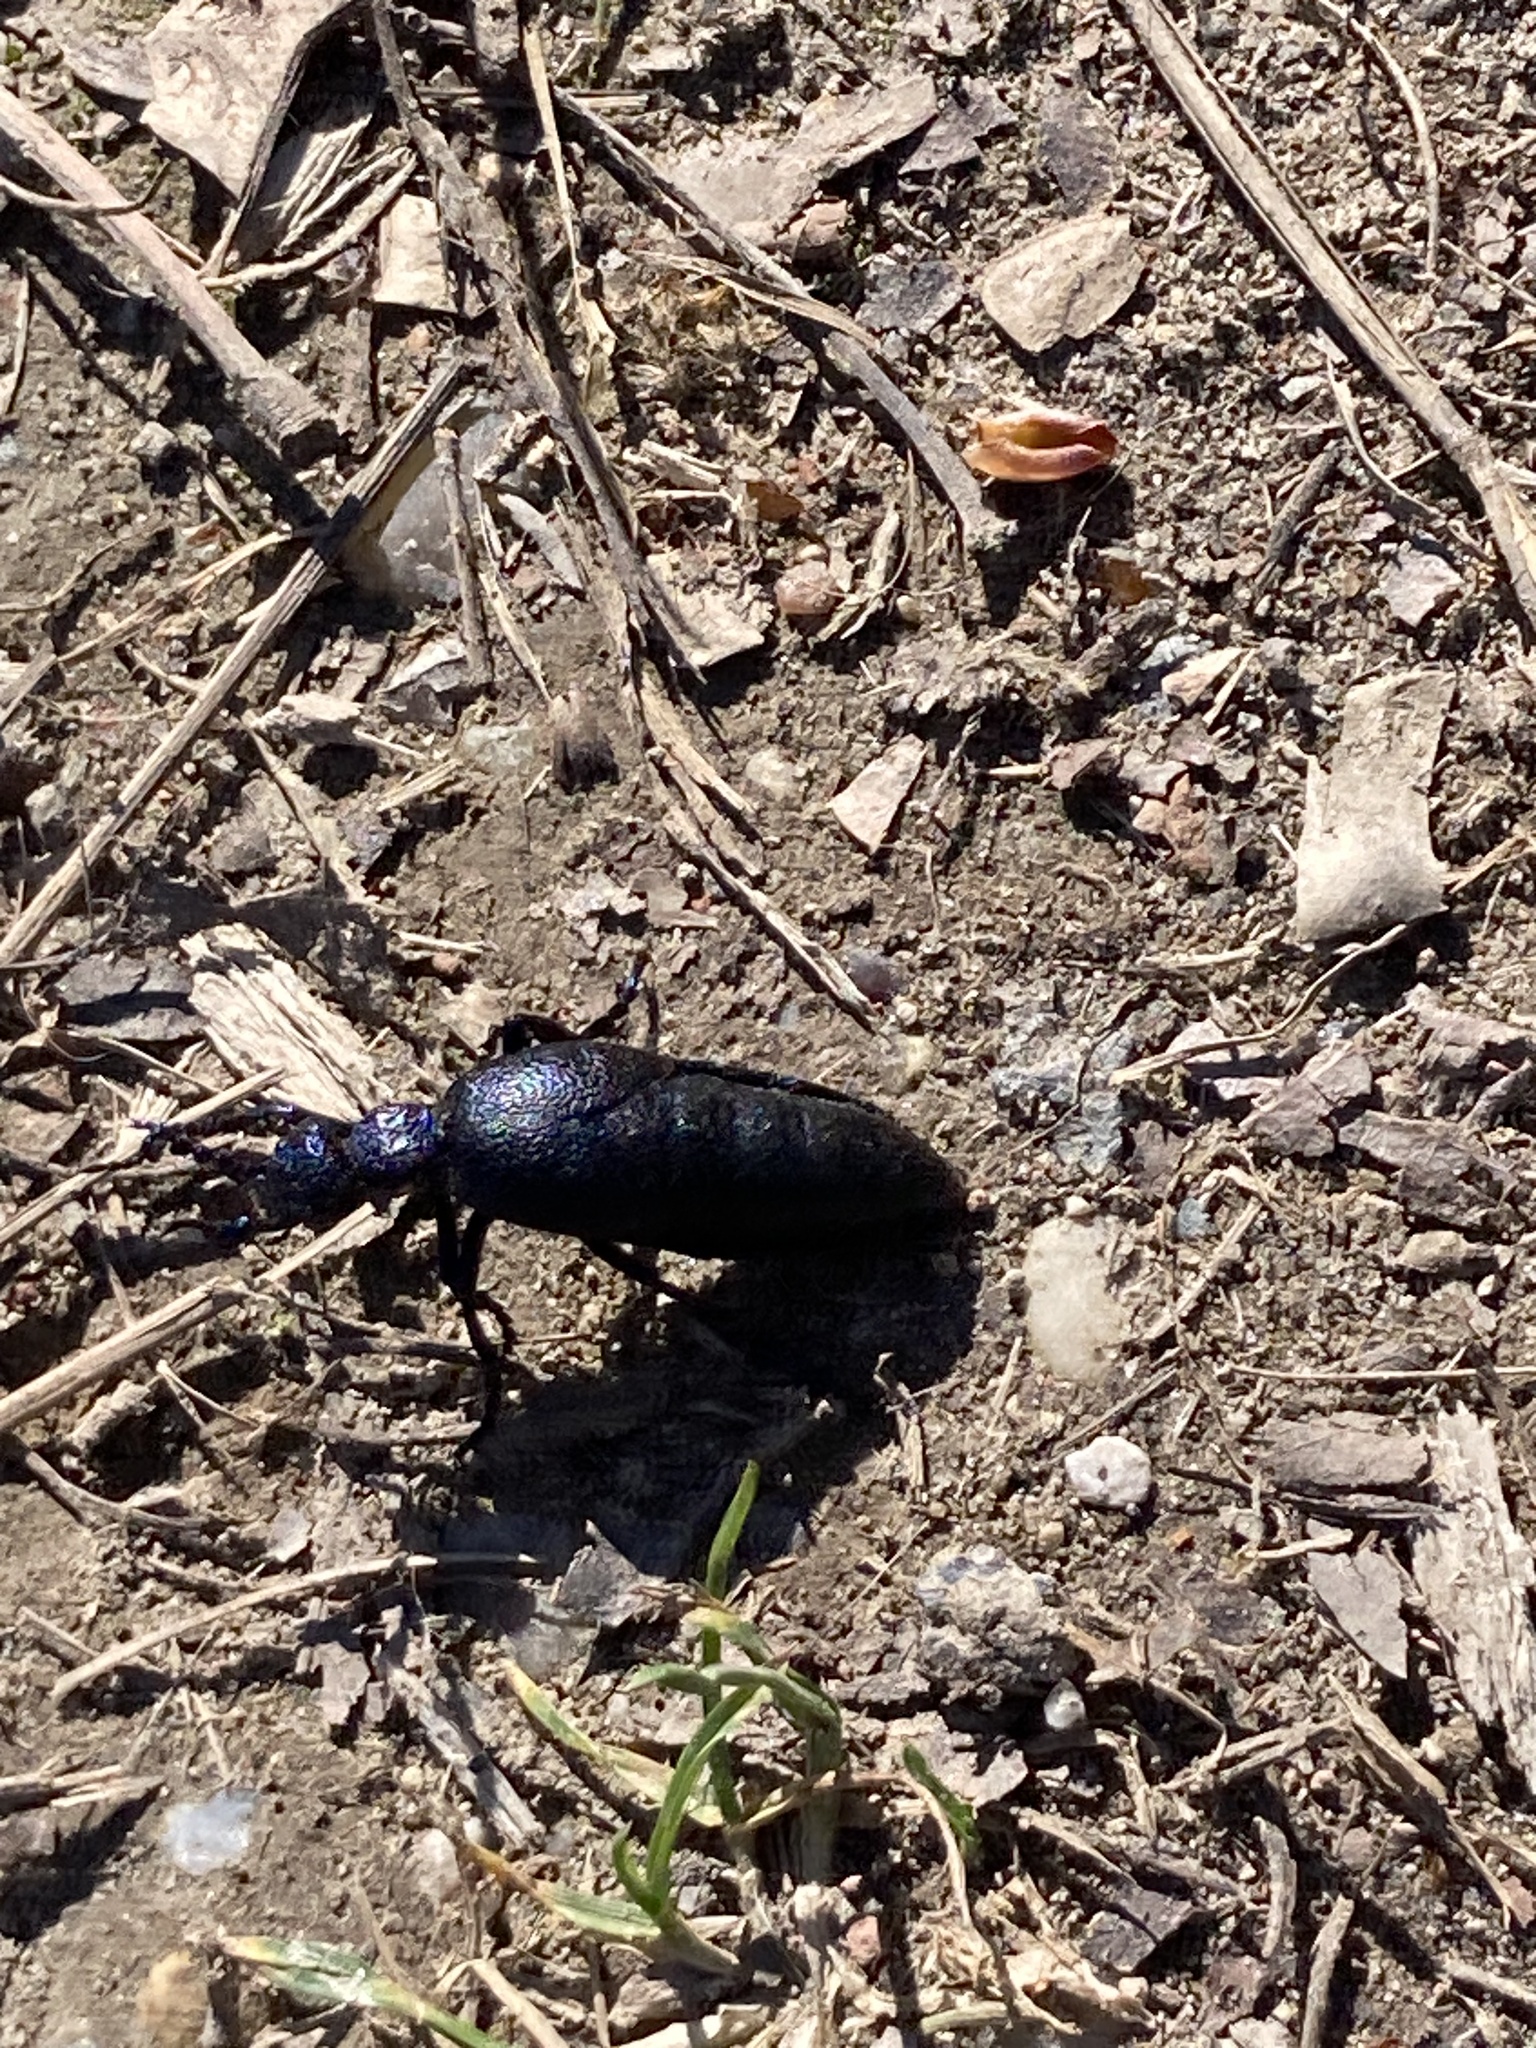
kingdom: Animalia
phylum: Arthropoda
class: Insecta
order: Coleoptera
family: Meloidae
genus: Meloe
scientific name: Meloe proscarabaeus
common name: Black oil-beetle
